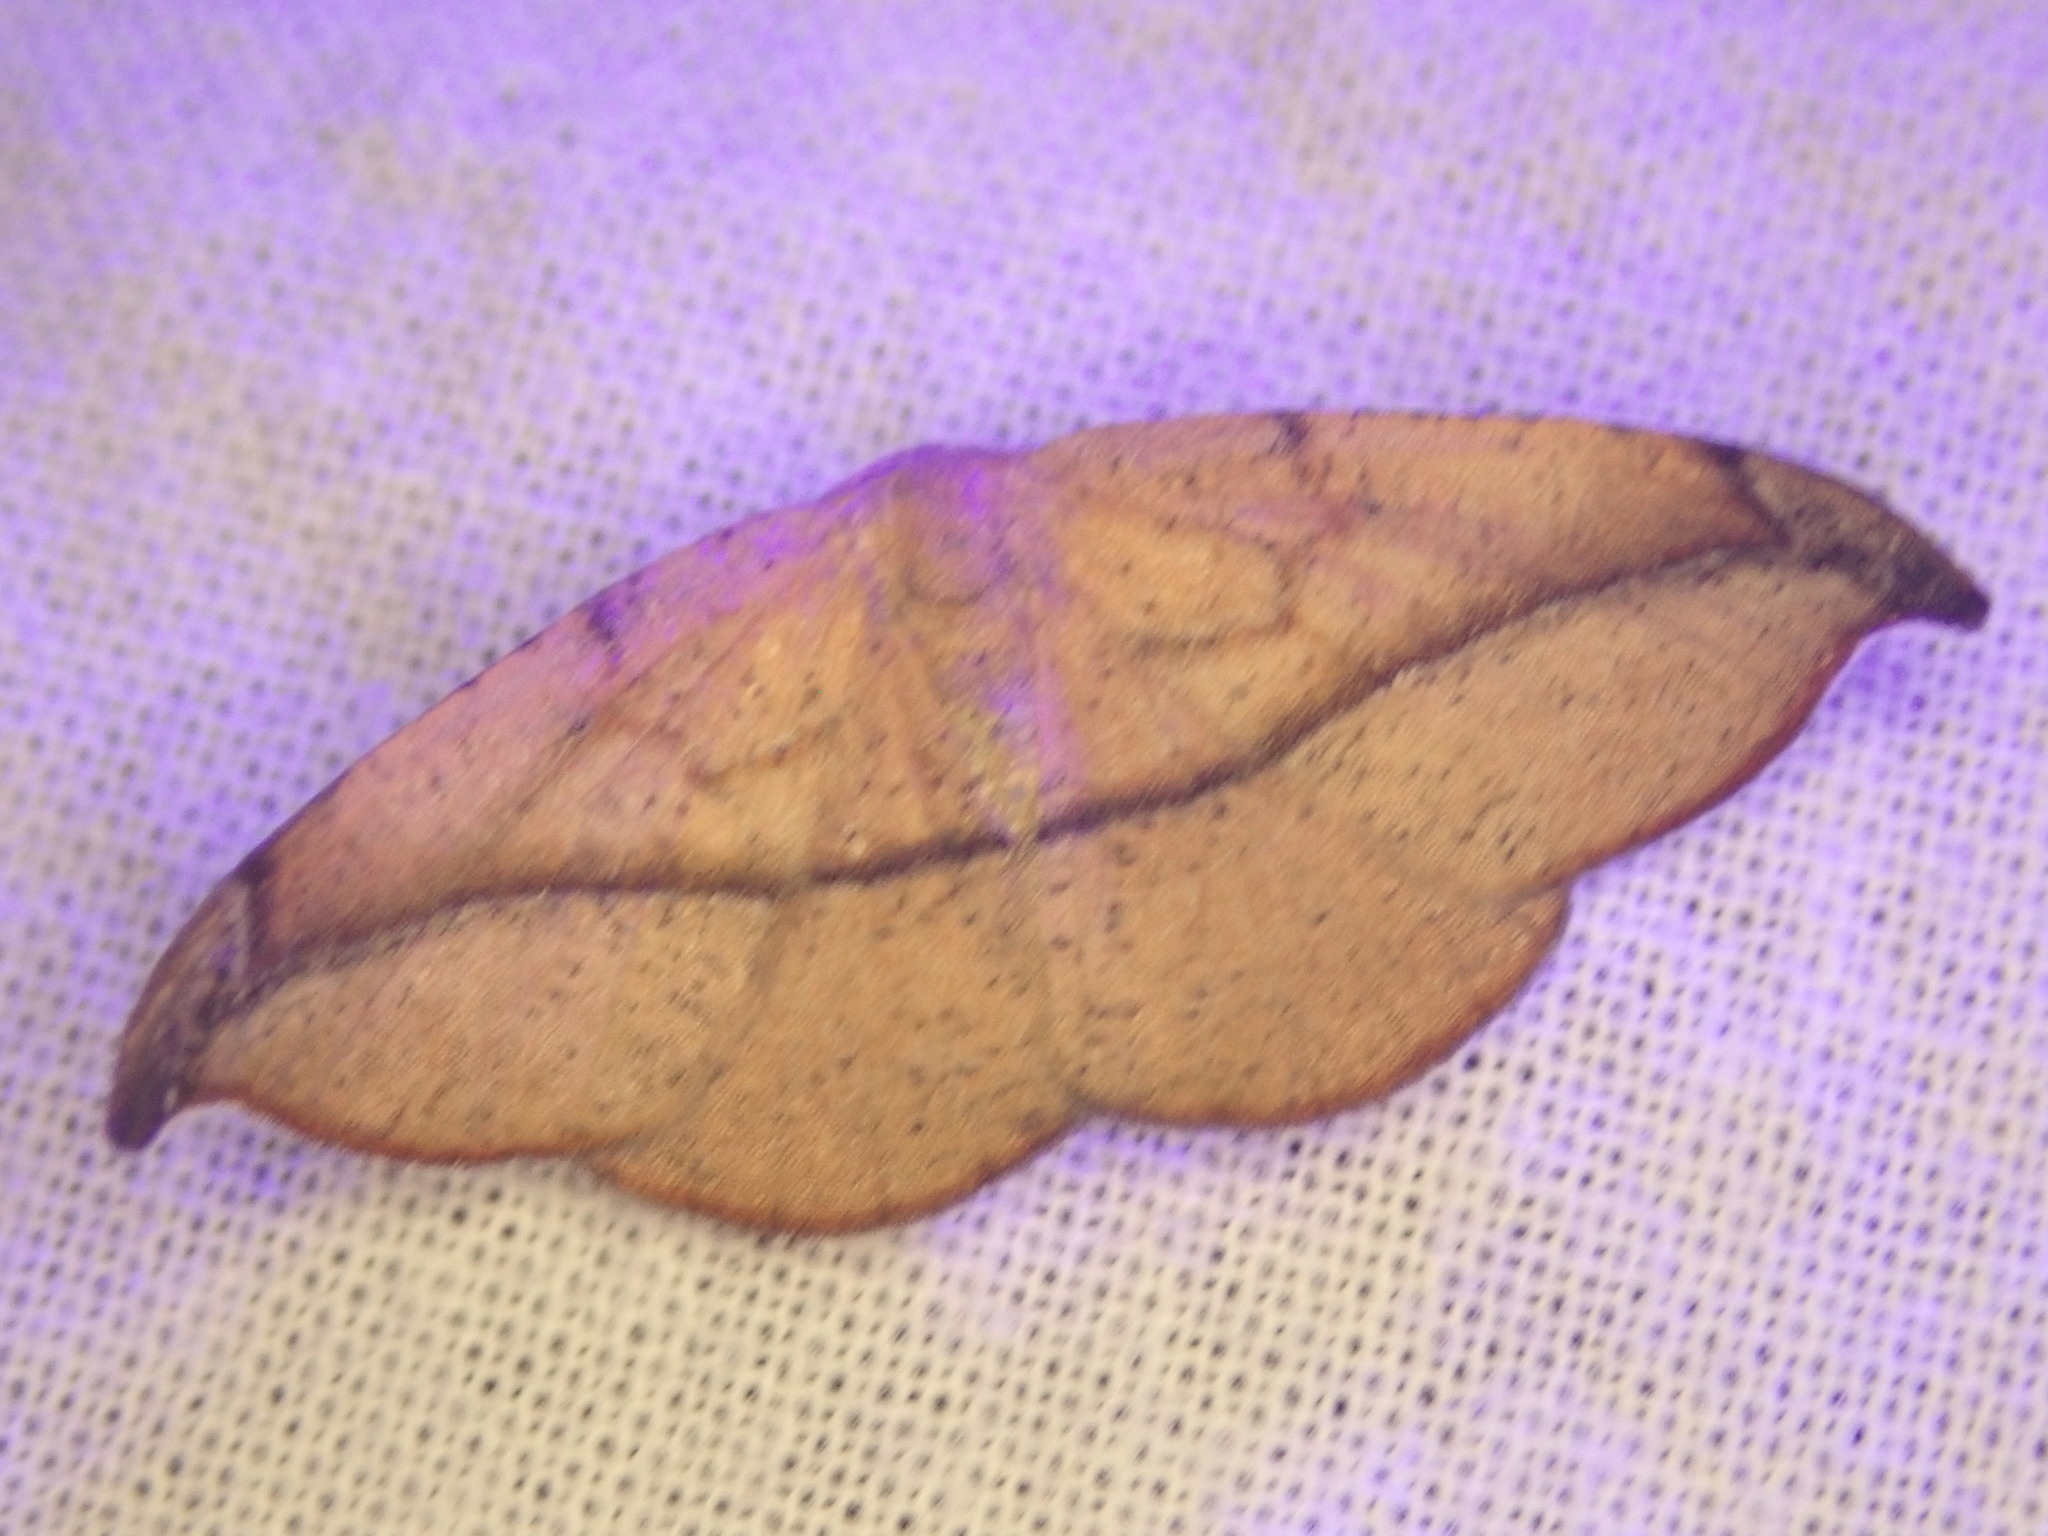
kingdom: Animalia
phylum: Arthropoda
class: Insecta
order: Lepidoptera
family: Geometridae
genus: Patalene
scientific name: Patalene olyzonaria
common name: Juniper geometer moth
